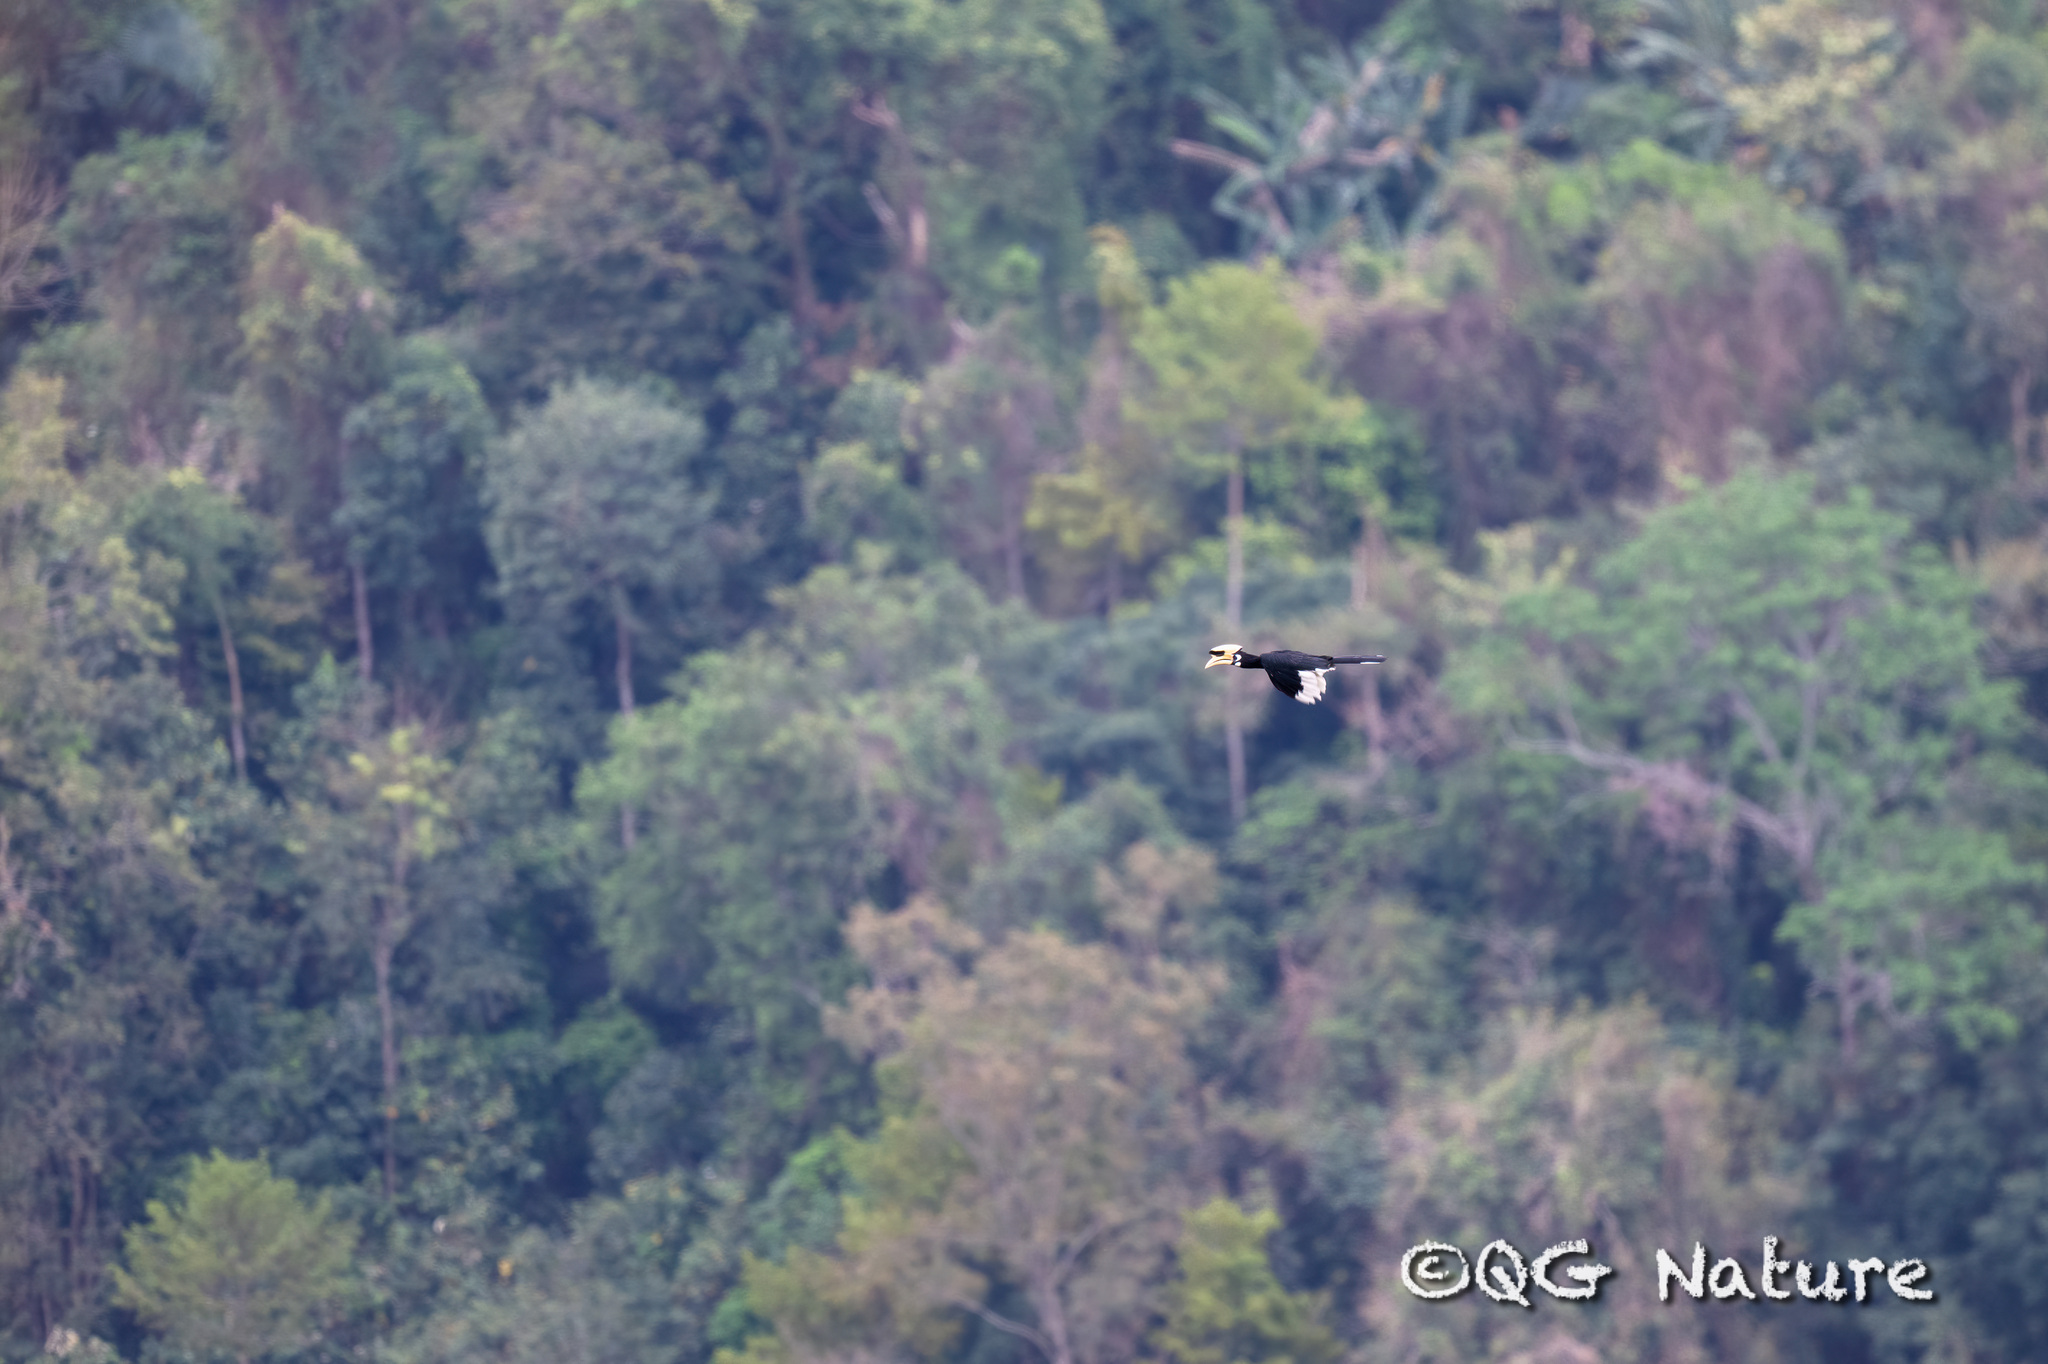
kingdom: Animalia
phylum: Chordata
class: Aves
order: Bucerotiformes
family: Bucerotidae
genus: Anthracoceros
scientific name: Anthracoceros albirostris
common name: Oriental pied-hornbill
